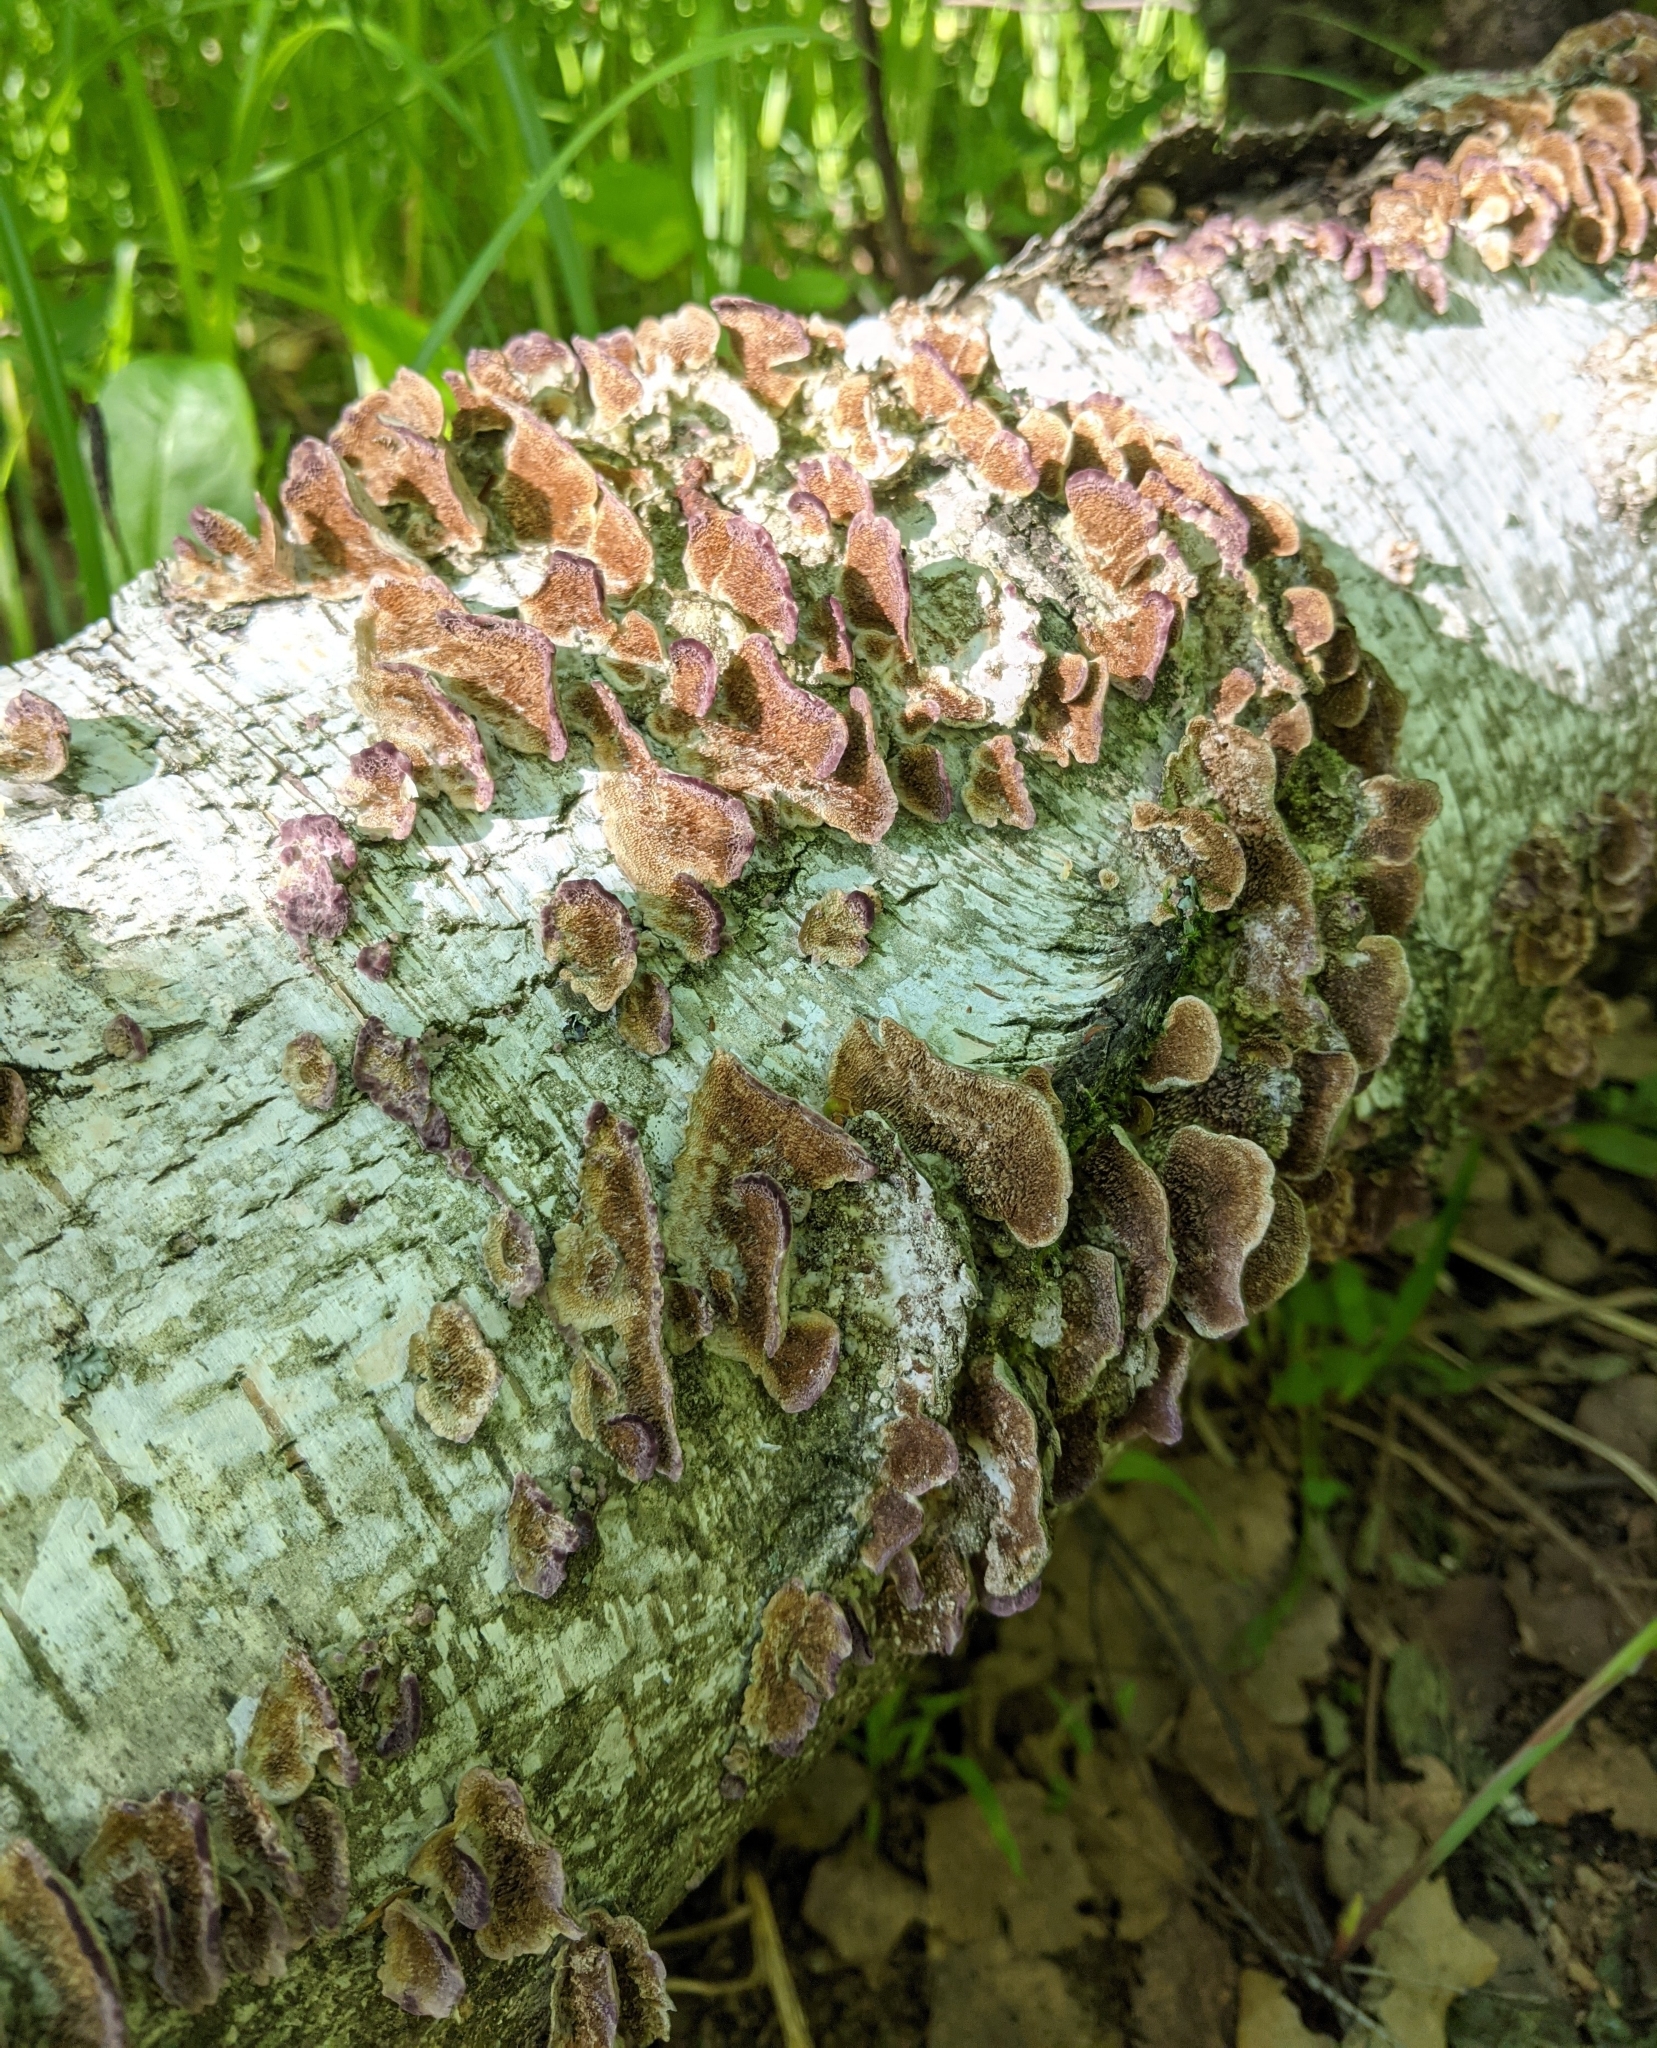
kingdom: Fungi
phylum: Basidiomycota
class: Agaricomycetes
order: Hymenochaetales
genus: Trichaptum
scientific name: Trichaptum biforme
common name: Violet-toothed polypore
